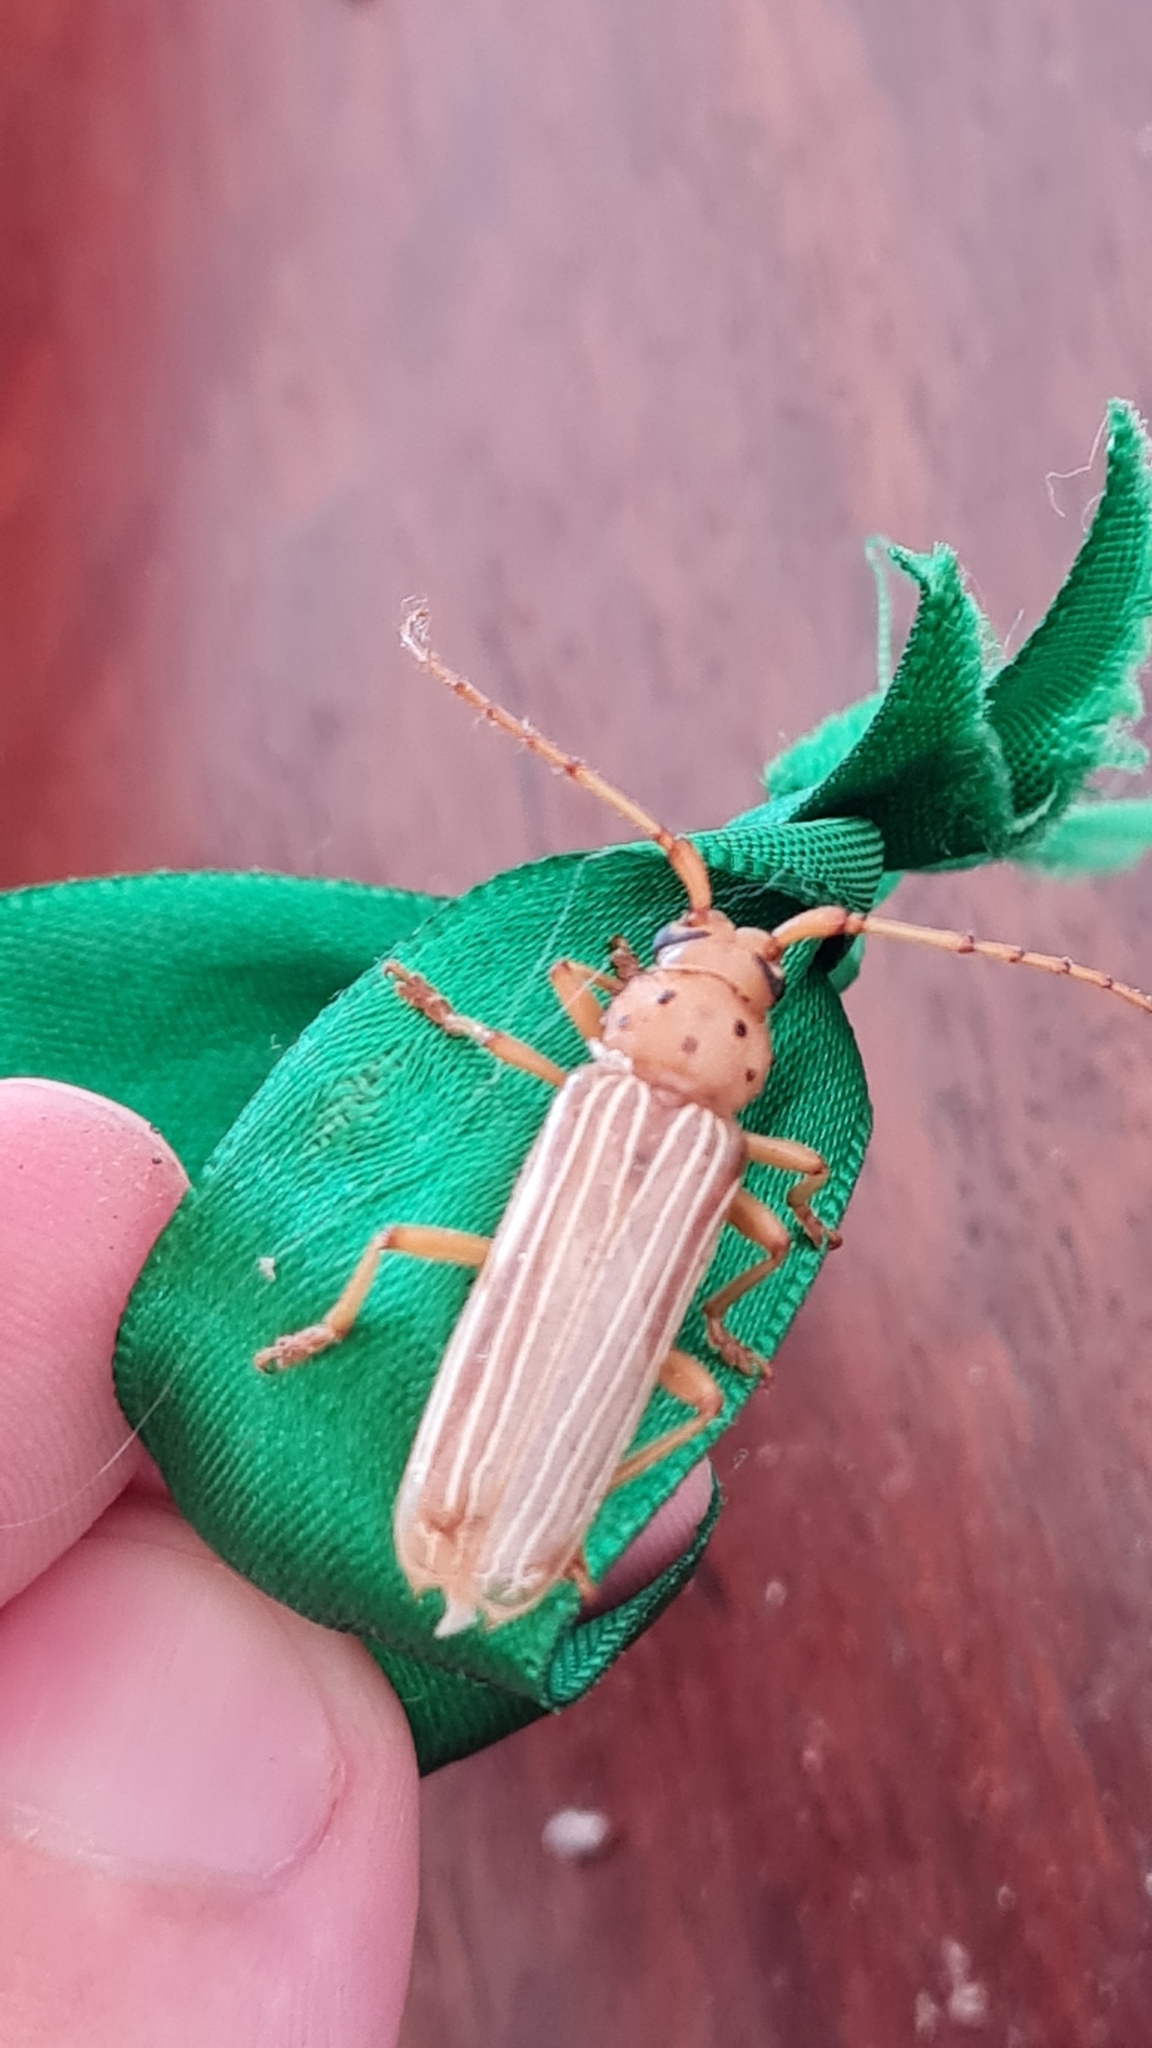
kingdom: Animalia
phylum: Arthropoda
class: Insecta
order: Coleoptera
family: Cerambycidae
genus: Coccoderus
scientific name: Coccoderus novempunctatus
